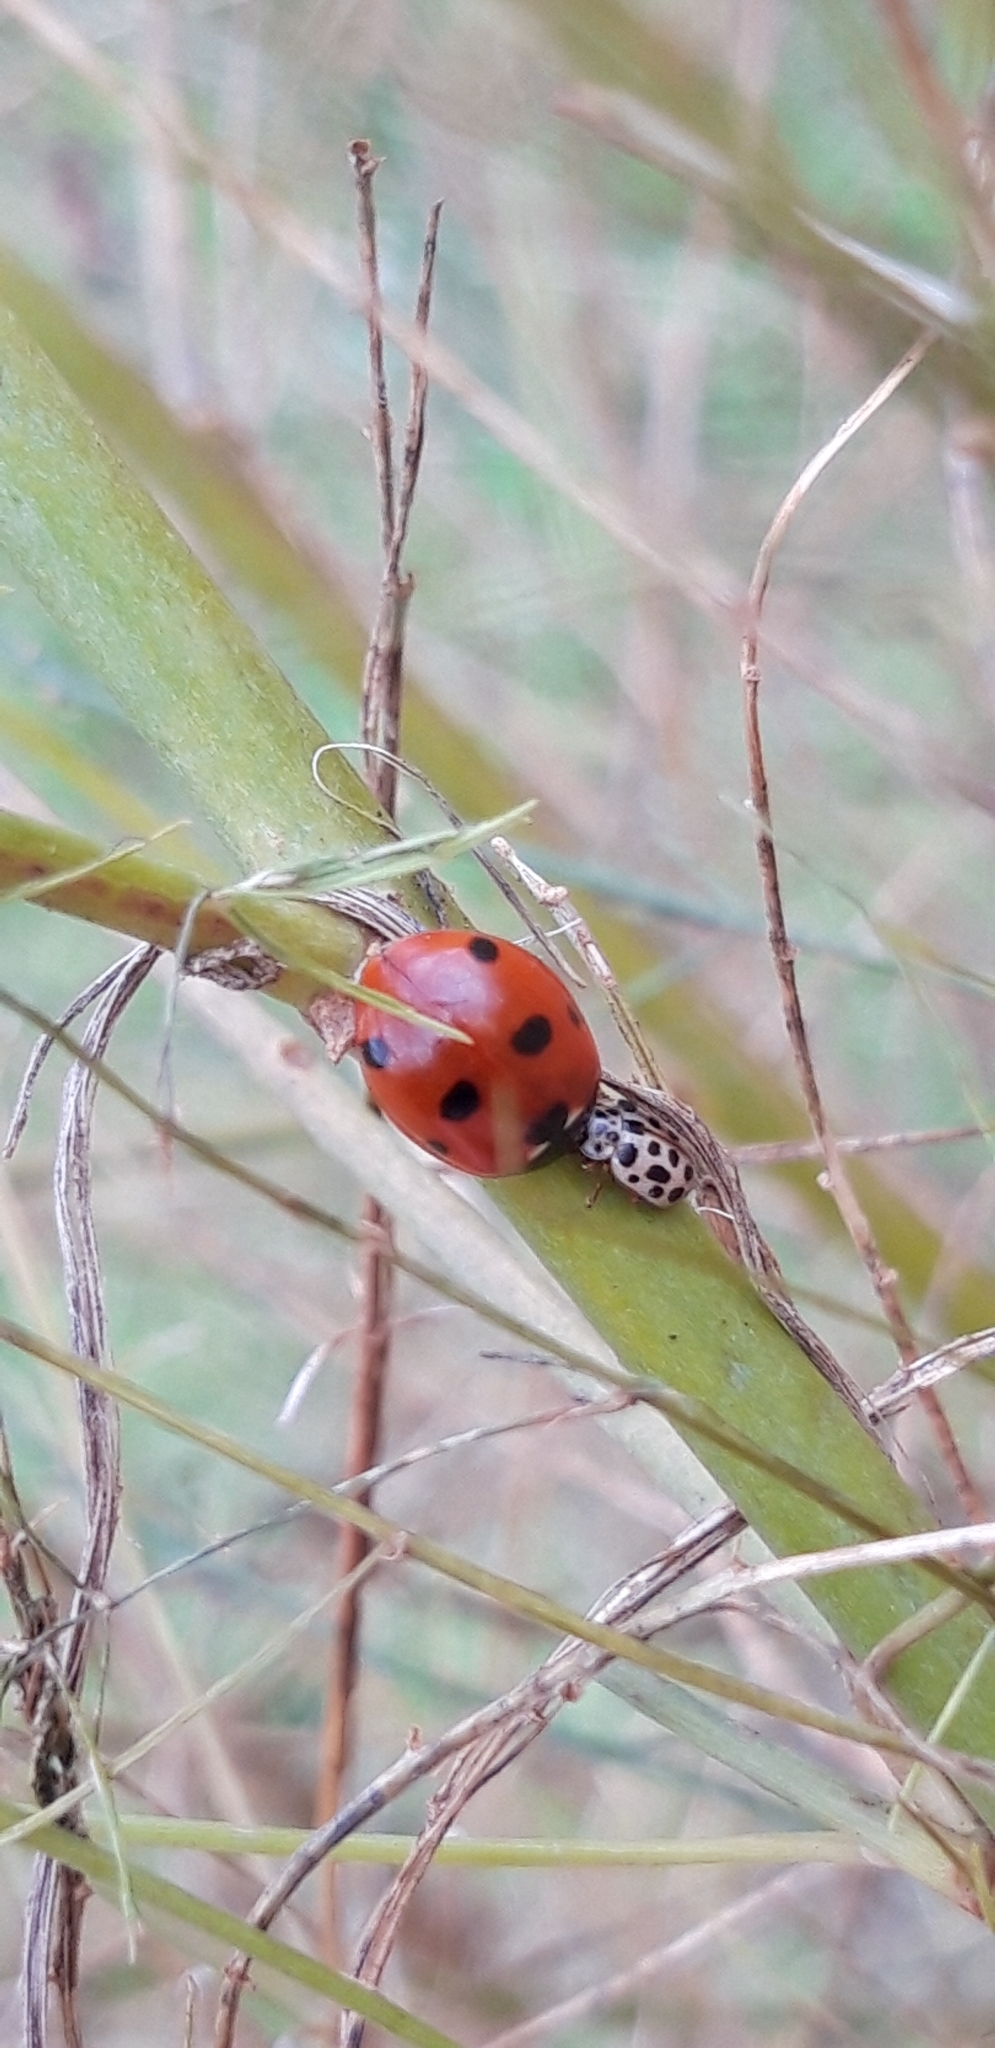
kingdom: Animalia
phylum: Arthropoda
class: Insecta
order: Coleoptera
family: Coccinellidae
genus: Anisosticta
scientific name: Anisosticta novemdecimpunctata
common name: Water ladybird
